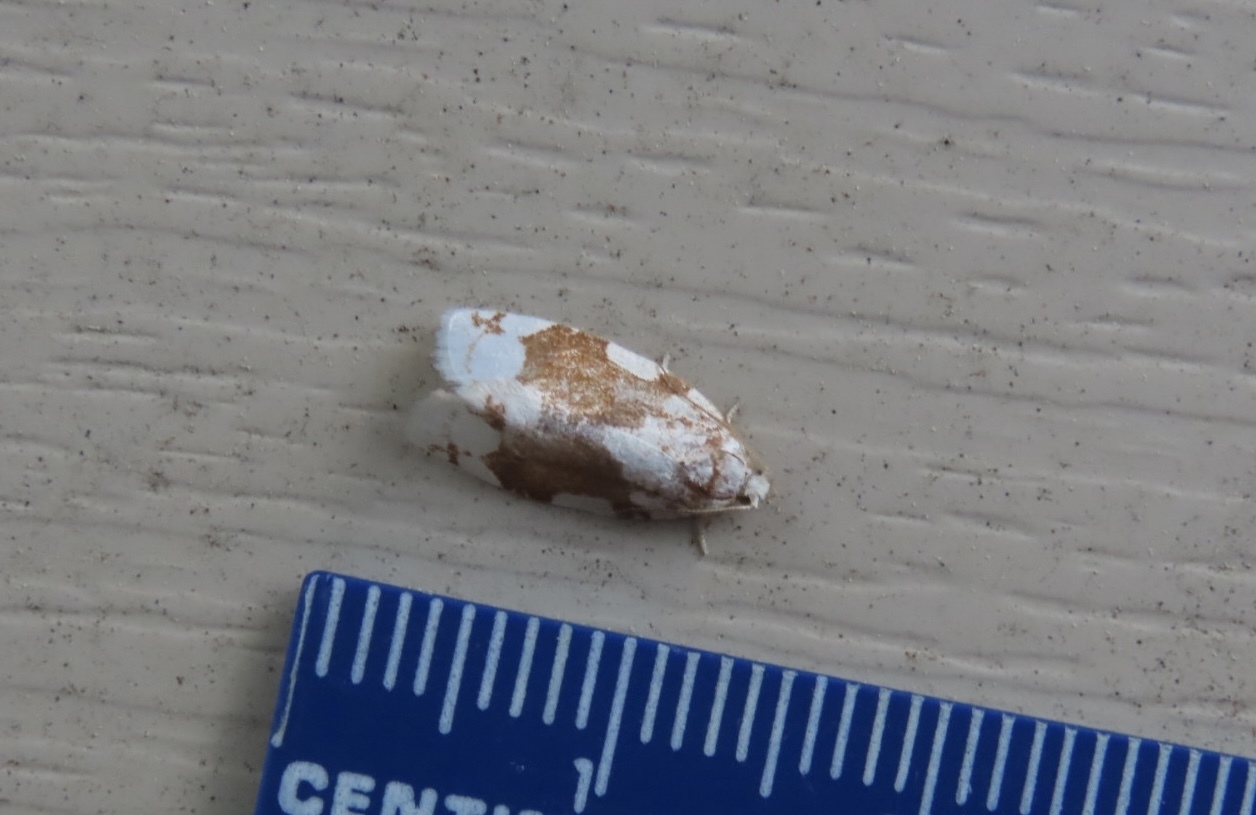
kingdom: Animalia
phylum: Arthropoda
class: Insecta
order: Lepidoptera
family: Tortricidae
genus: Argyrotaenia
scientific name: Argyrotaenia alisellana
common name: White-spotted leafroller moth
